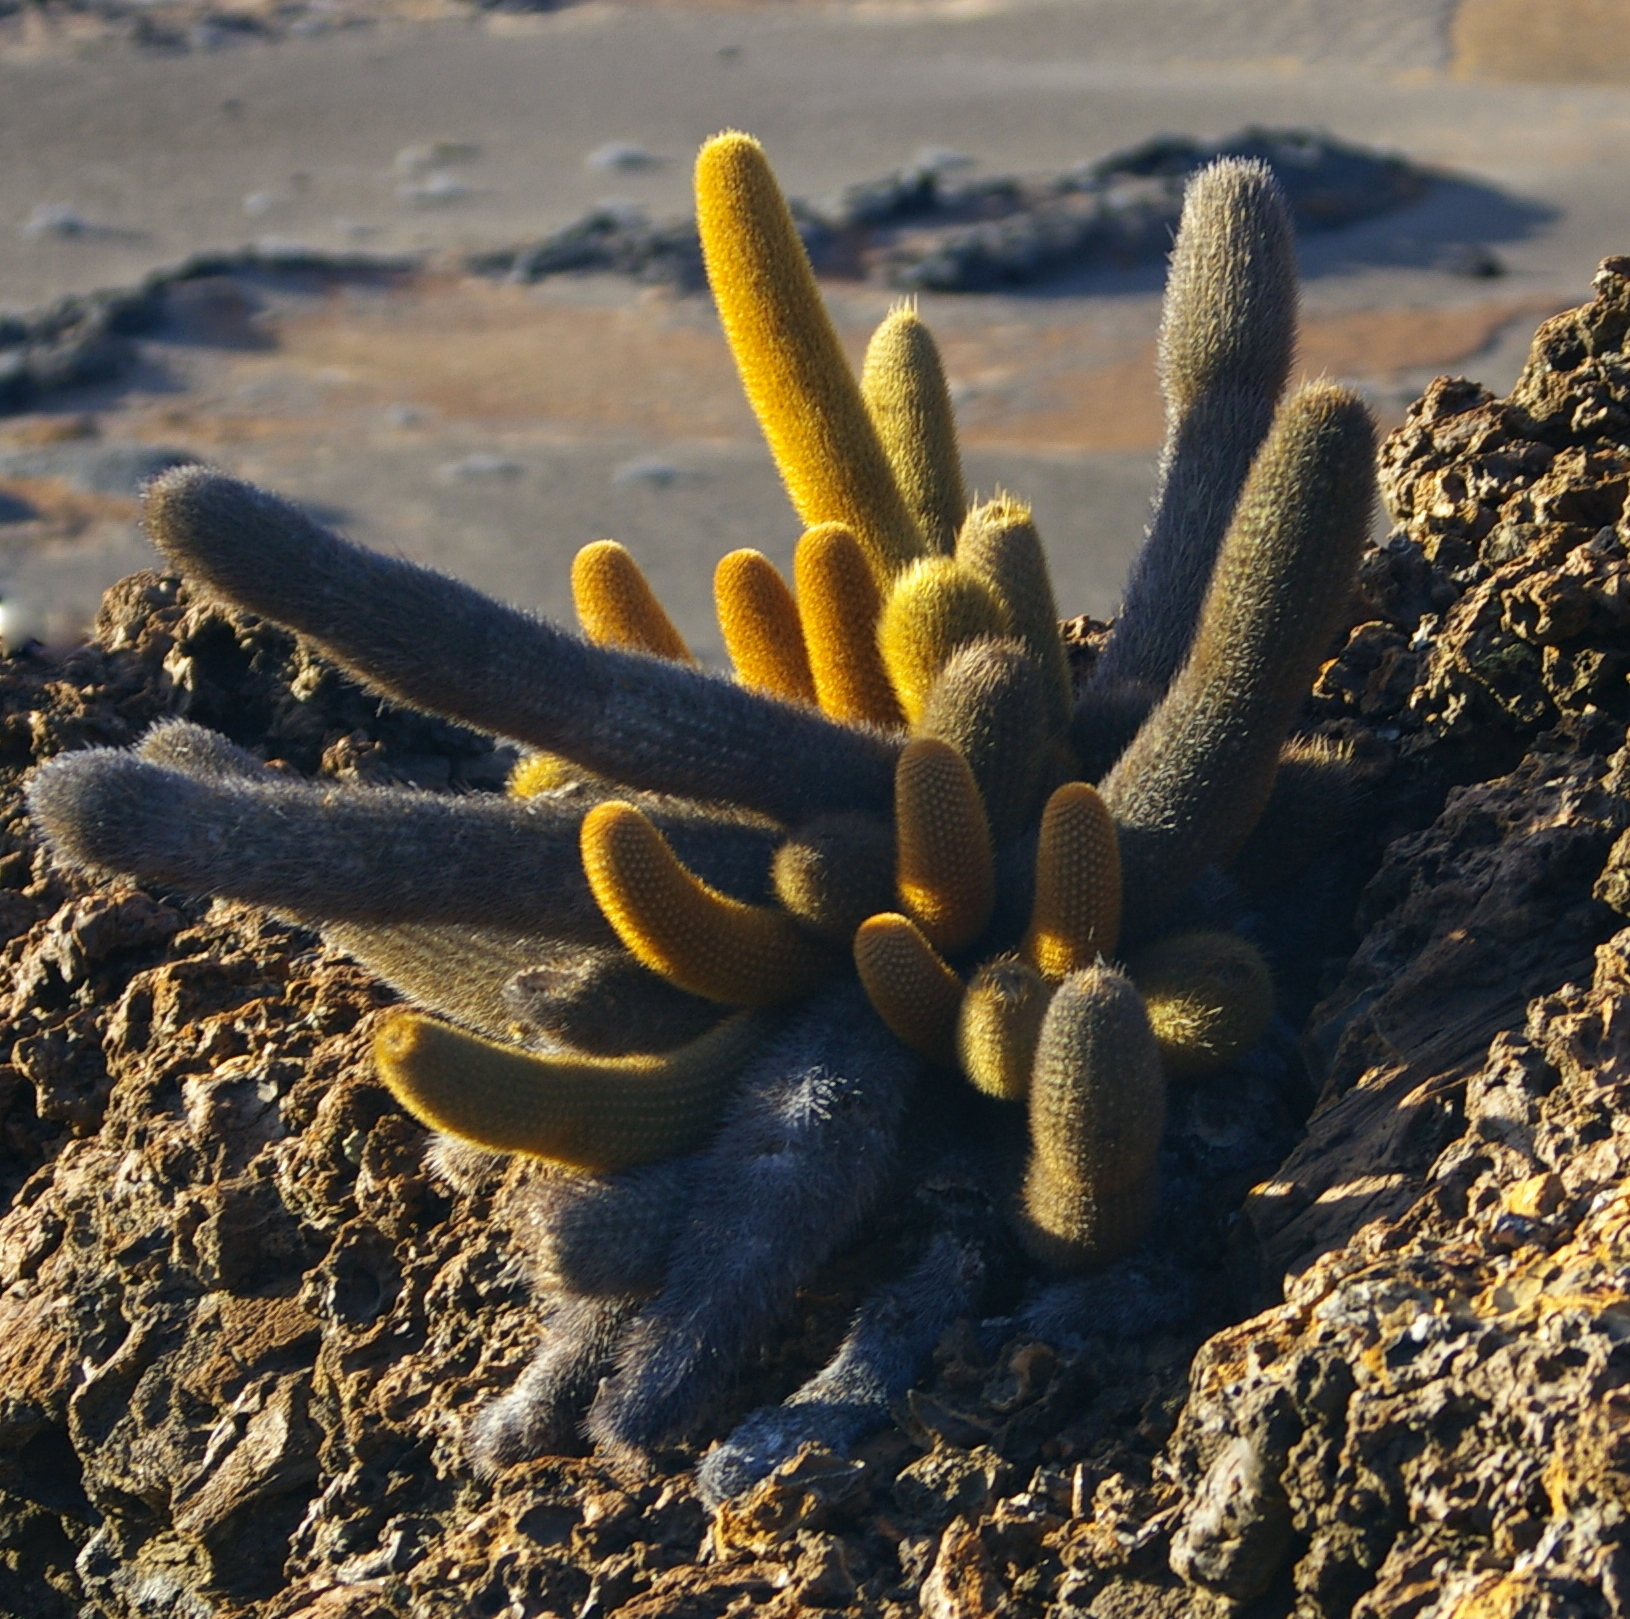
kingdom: Plantae
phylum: Tracheophyta
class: Magnoliopsida
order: Caryophyllales
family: Cactaceae
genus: Brachycereus
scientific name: Brachycereus nesioticus
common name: Lava cactus
